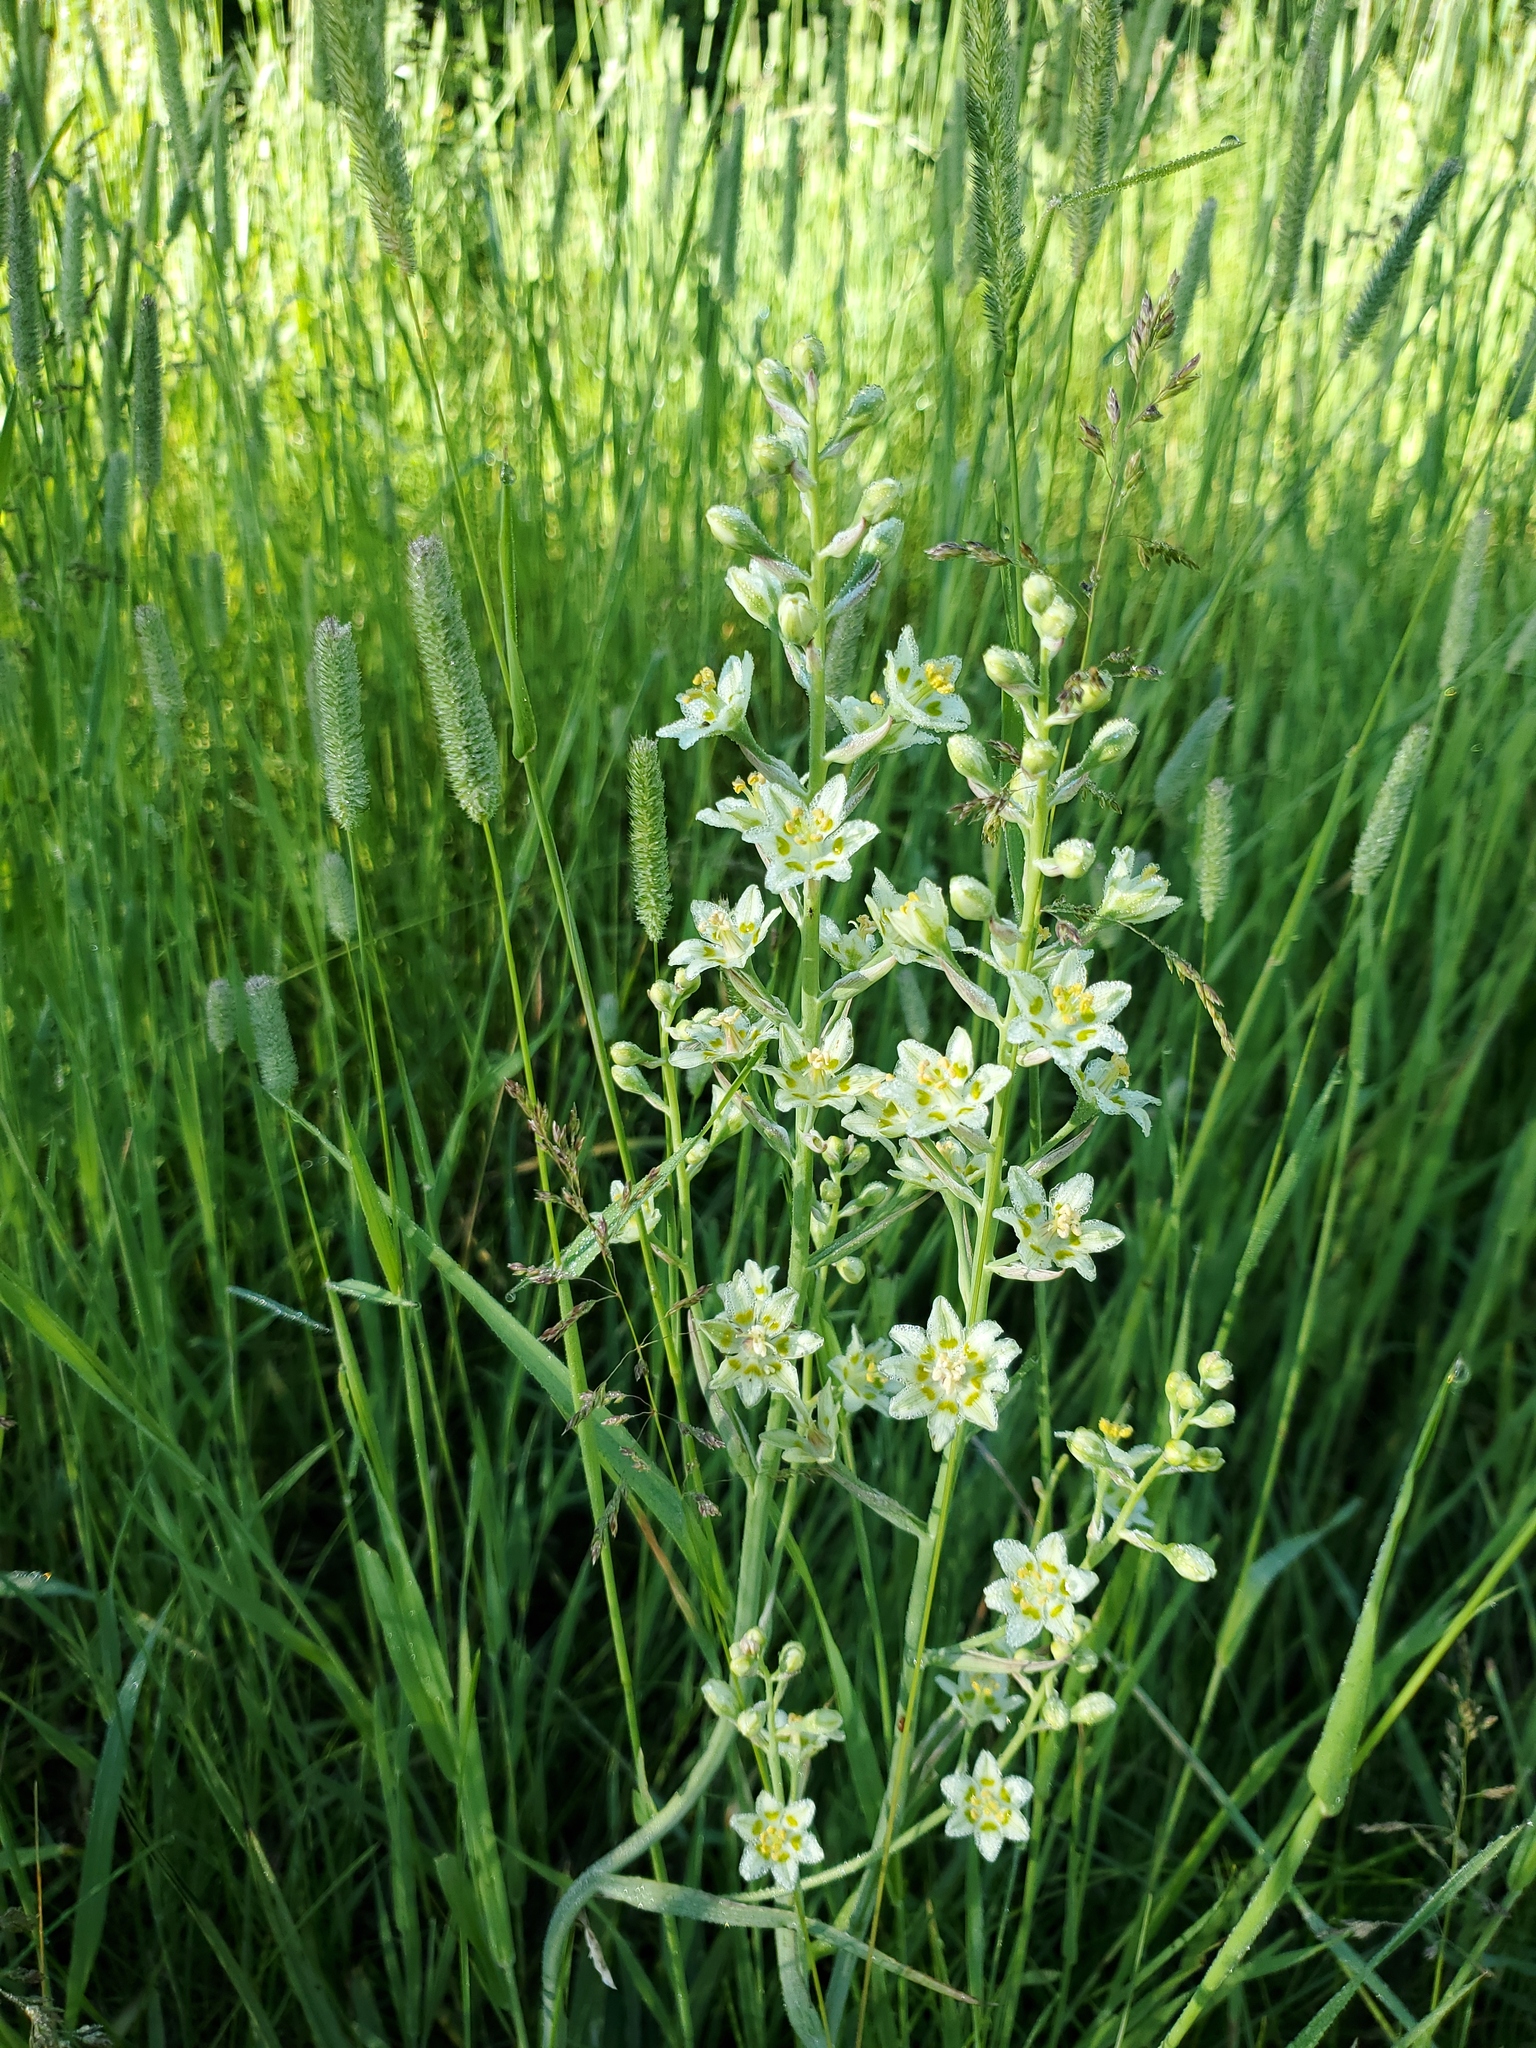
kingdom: Plantae
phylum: Tracheophyta
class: Liliopsida
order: Liliales
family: Melanthiaceae
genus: Anticlea
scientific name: Anticlea elegans
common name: Mountain death camas
